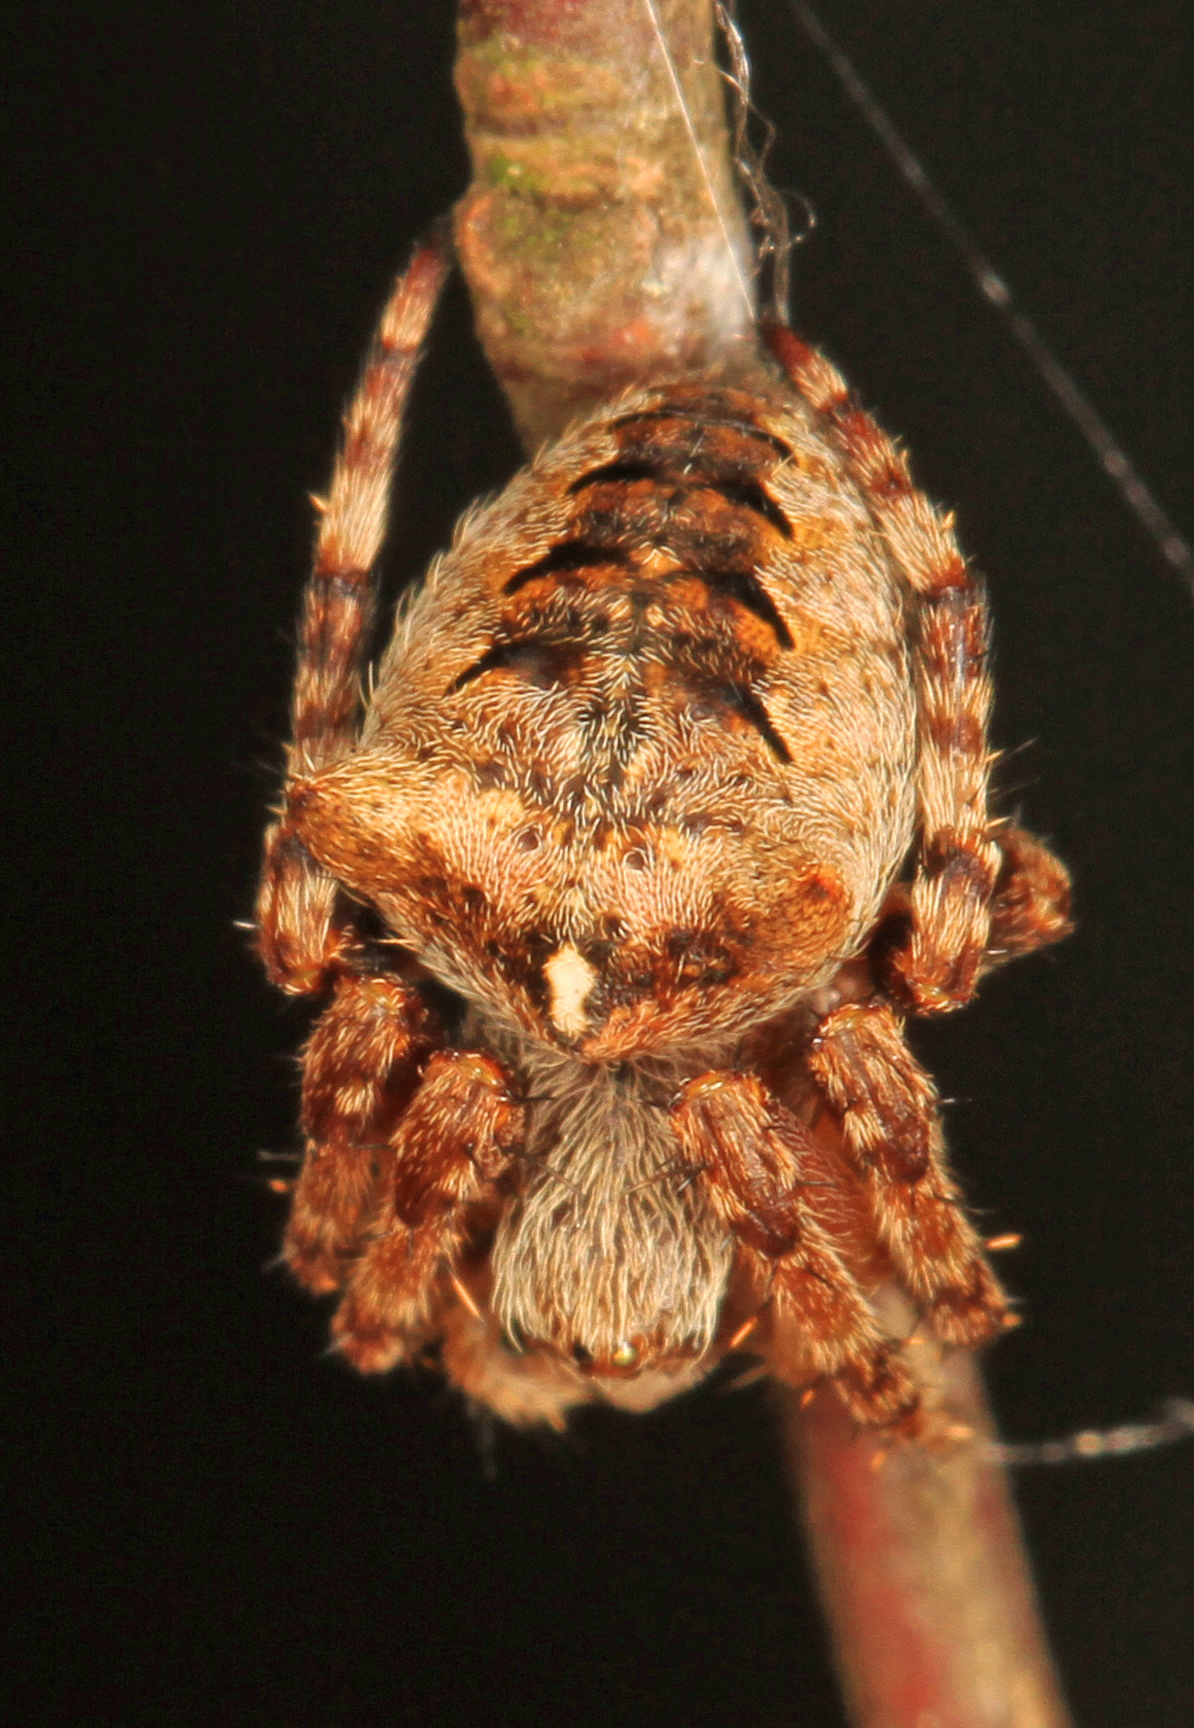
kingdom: Animalia
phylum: Arthropoda
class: Arachnida
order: Araneae
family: Araneidae
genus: Araneus
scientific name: Araneus saevus
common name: Fierce orbweaver
